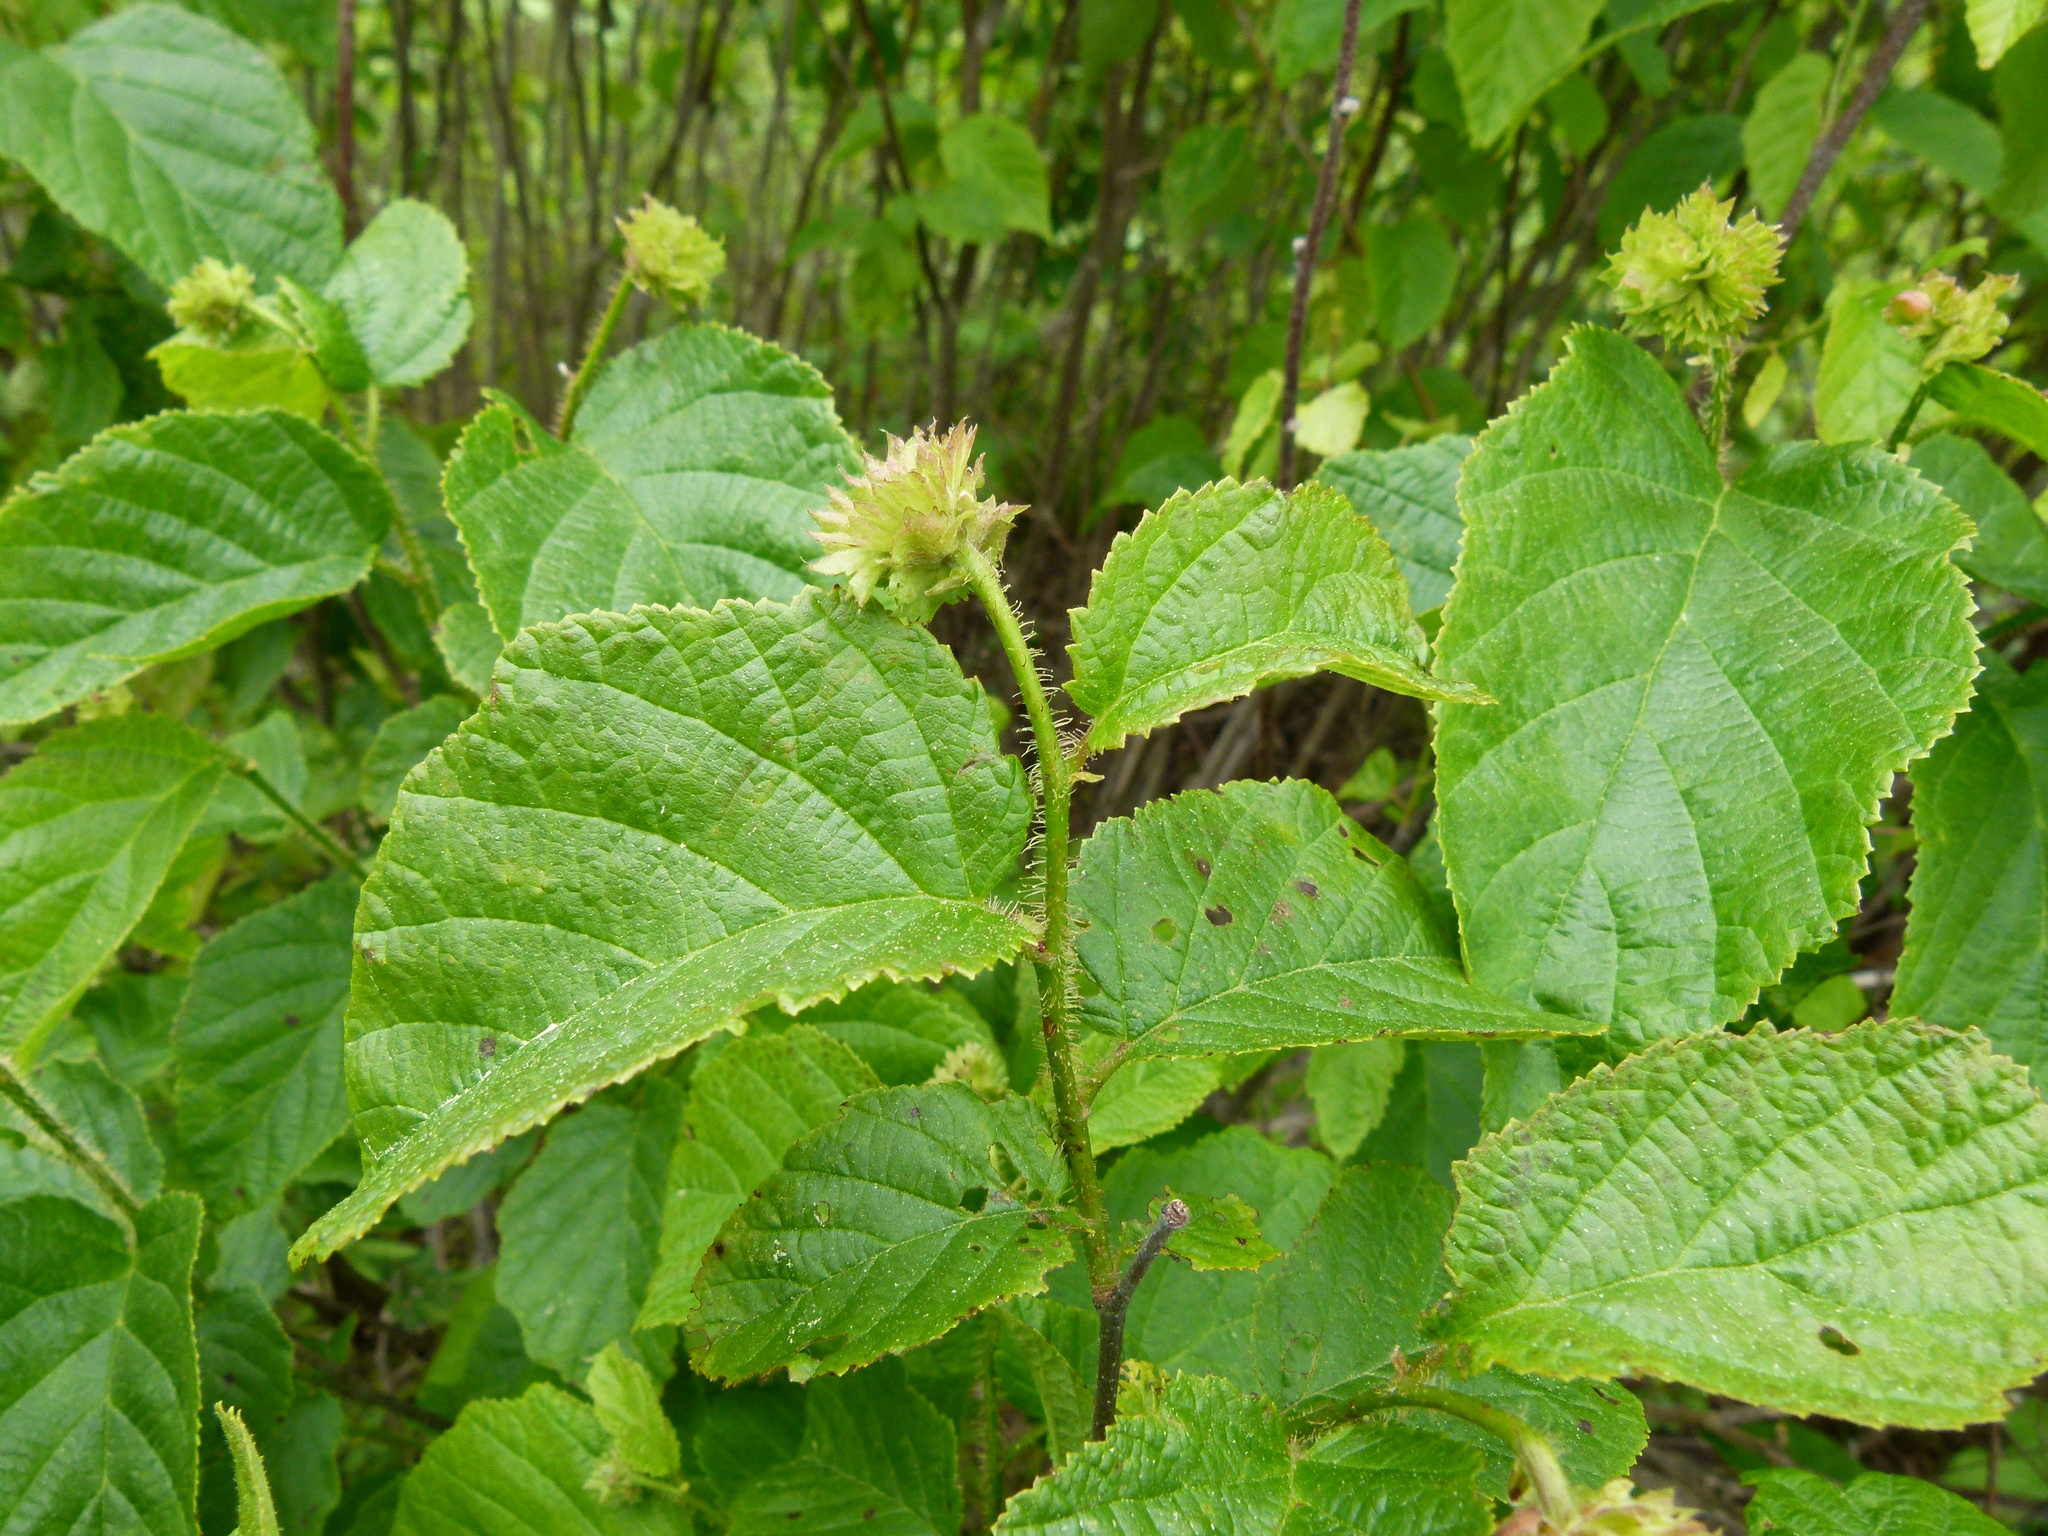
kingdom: Plantae
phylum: Tracheophyta
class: Magnoliopsida
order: Fagales
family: Betulaceae
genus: Corylus
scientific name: Corylus americana
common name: American hazel
